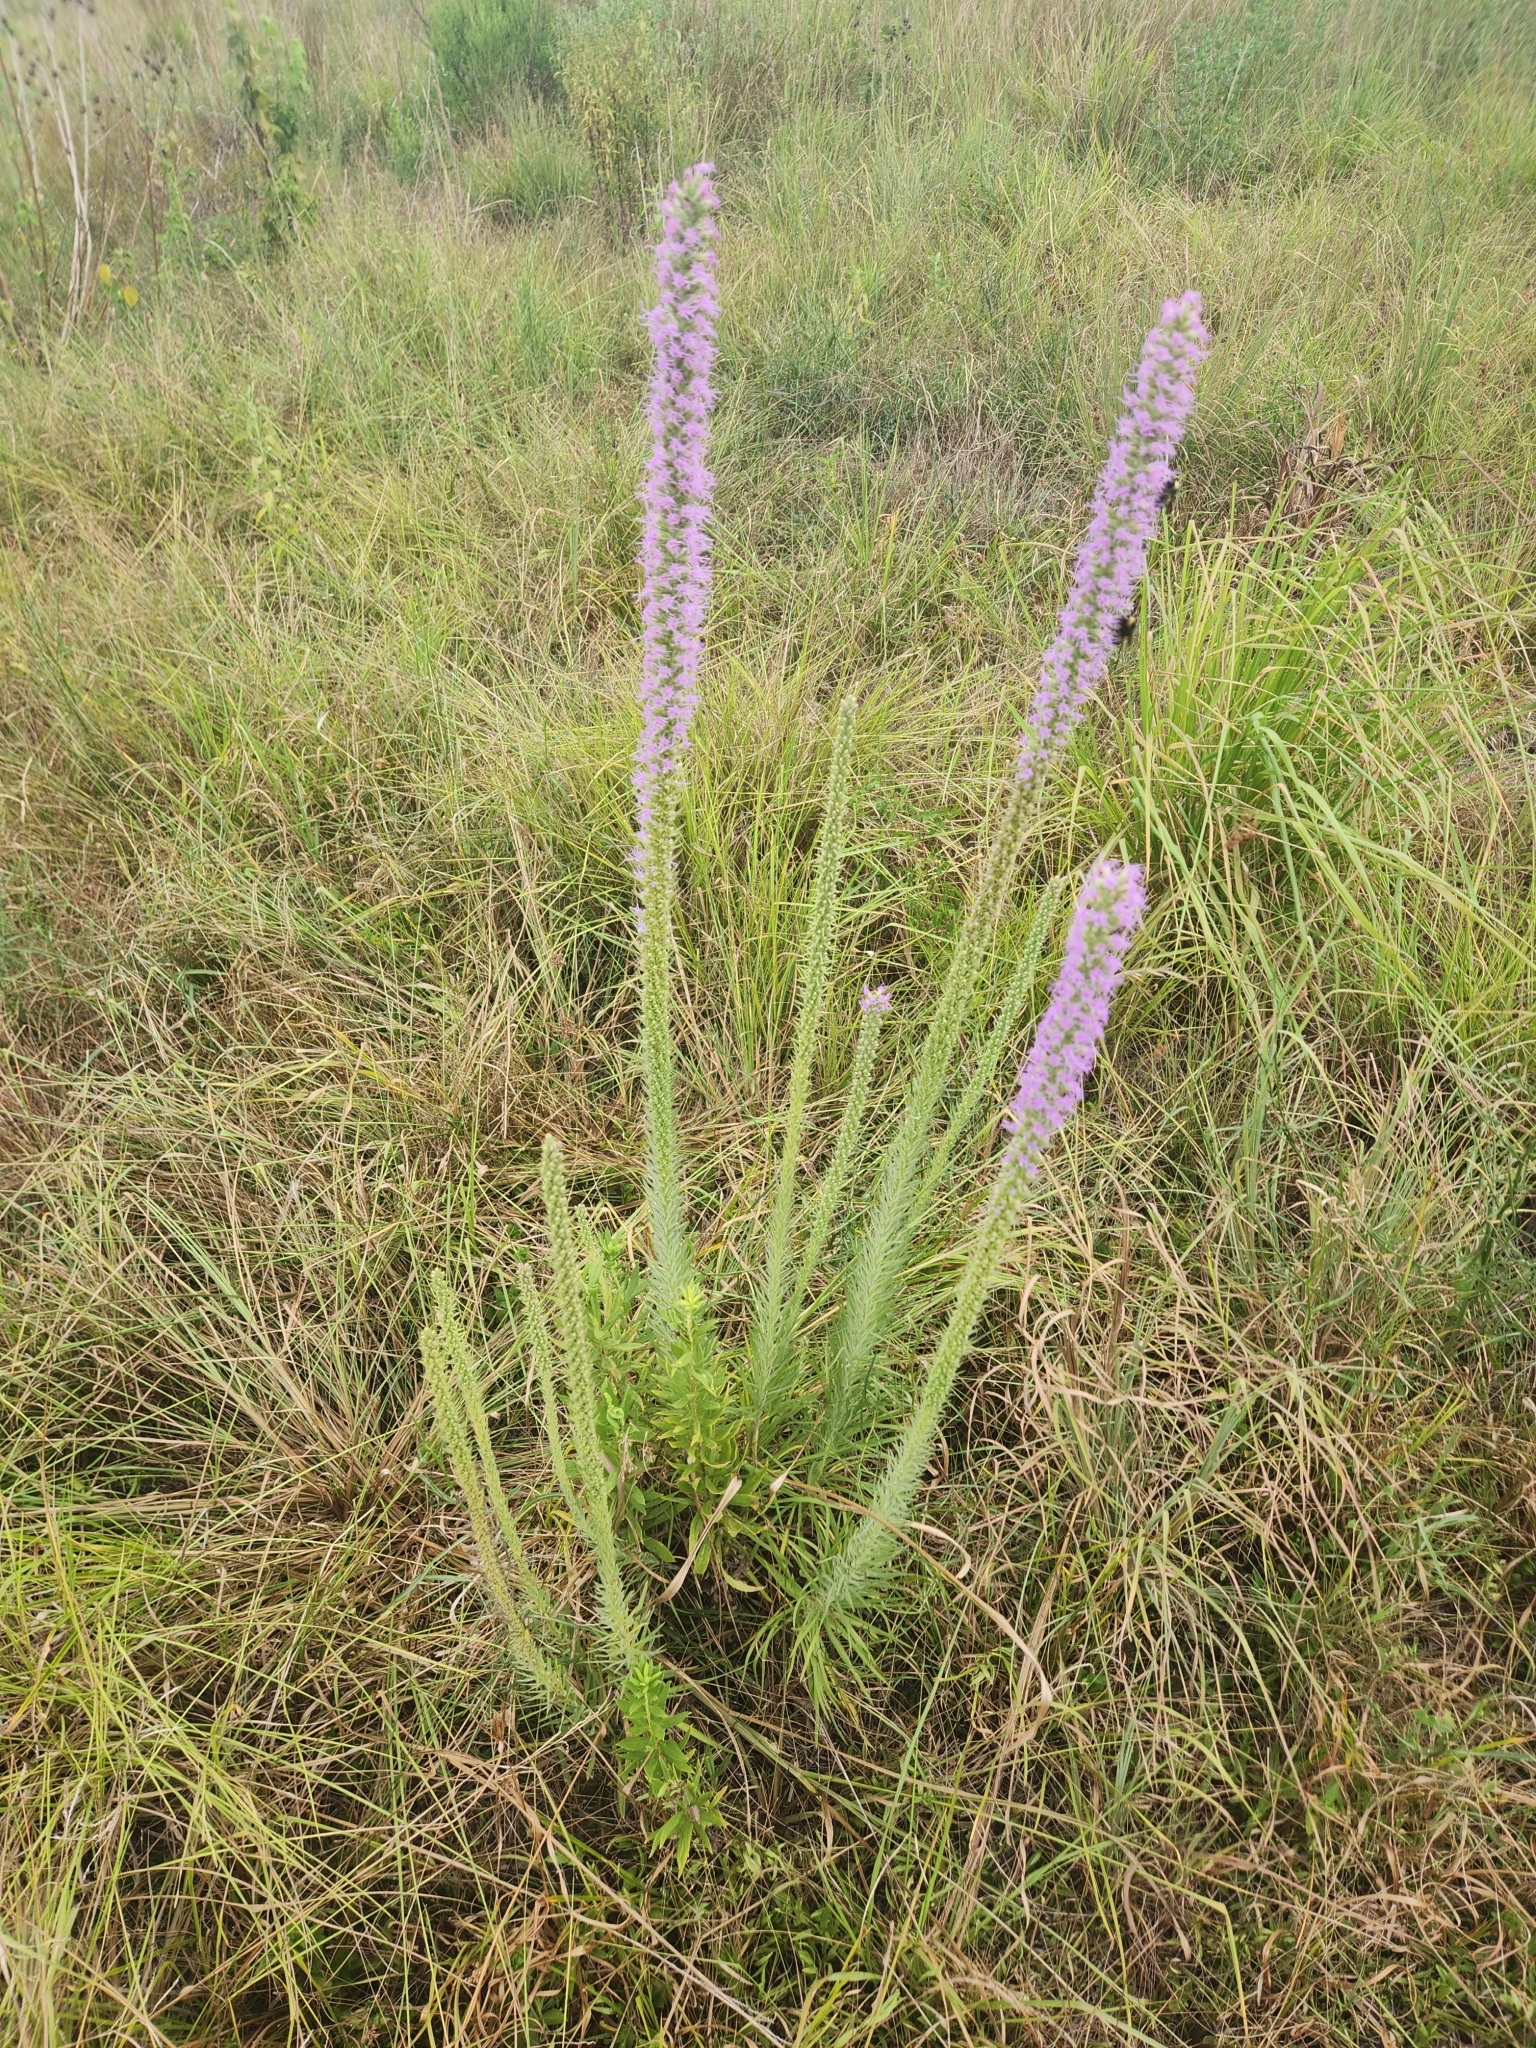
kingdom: Plantae
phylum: Tracheophyta
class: Magnoliopsida
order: Asterales
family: Asteraceae
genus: Liatris
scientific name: Liatris pycnostachya
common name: Cattail gayfeather
